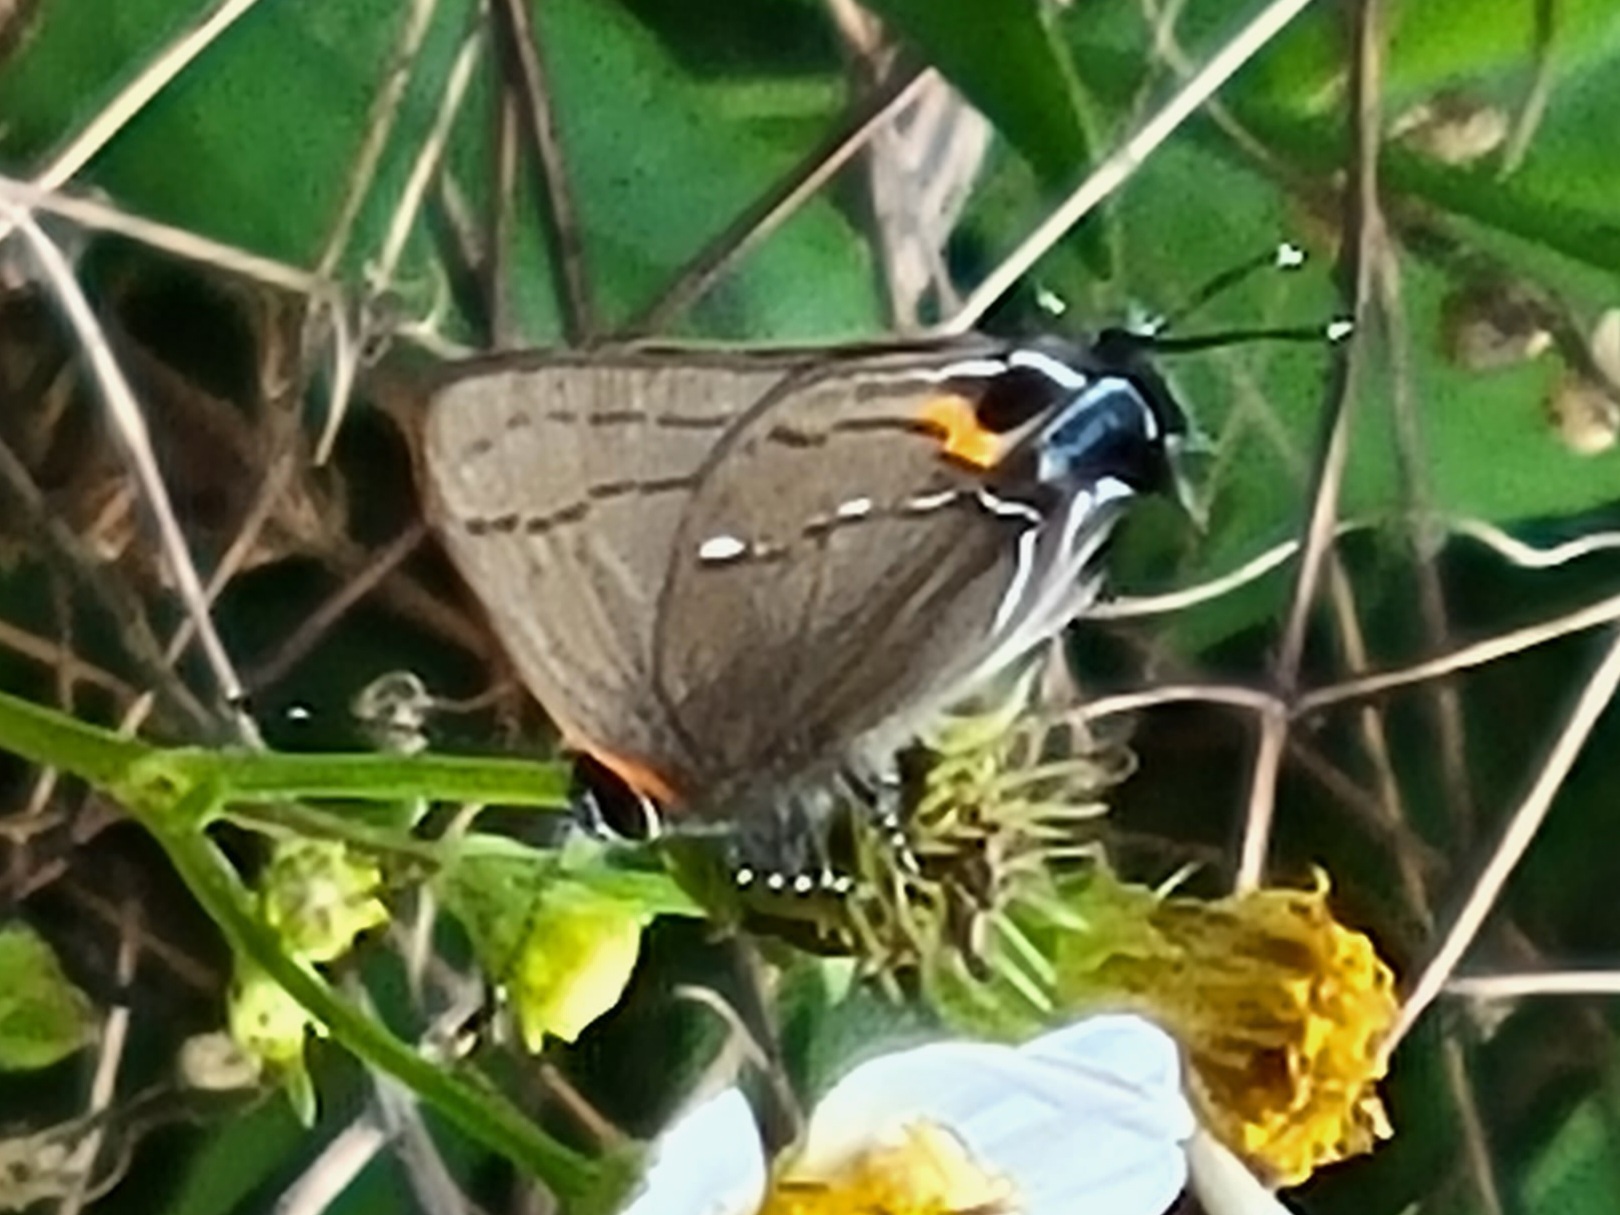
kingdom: Animalia
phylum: Arthropoda
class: Insecta
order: Lepidoptera
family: Lycaenidae
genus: Thecla
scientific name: Thecla angelia
